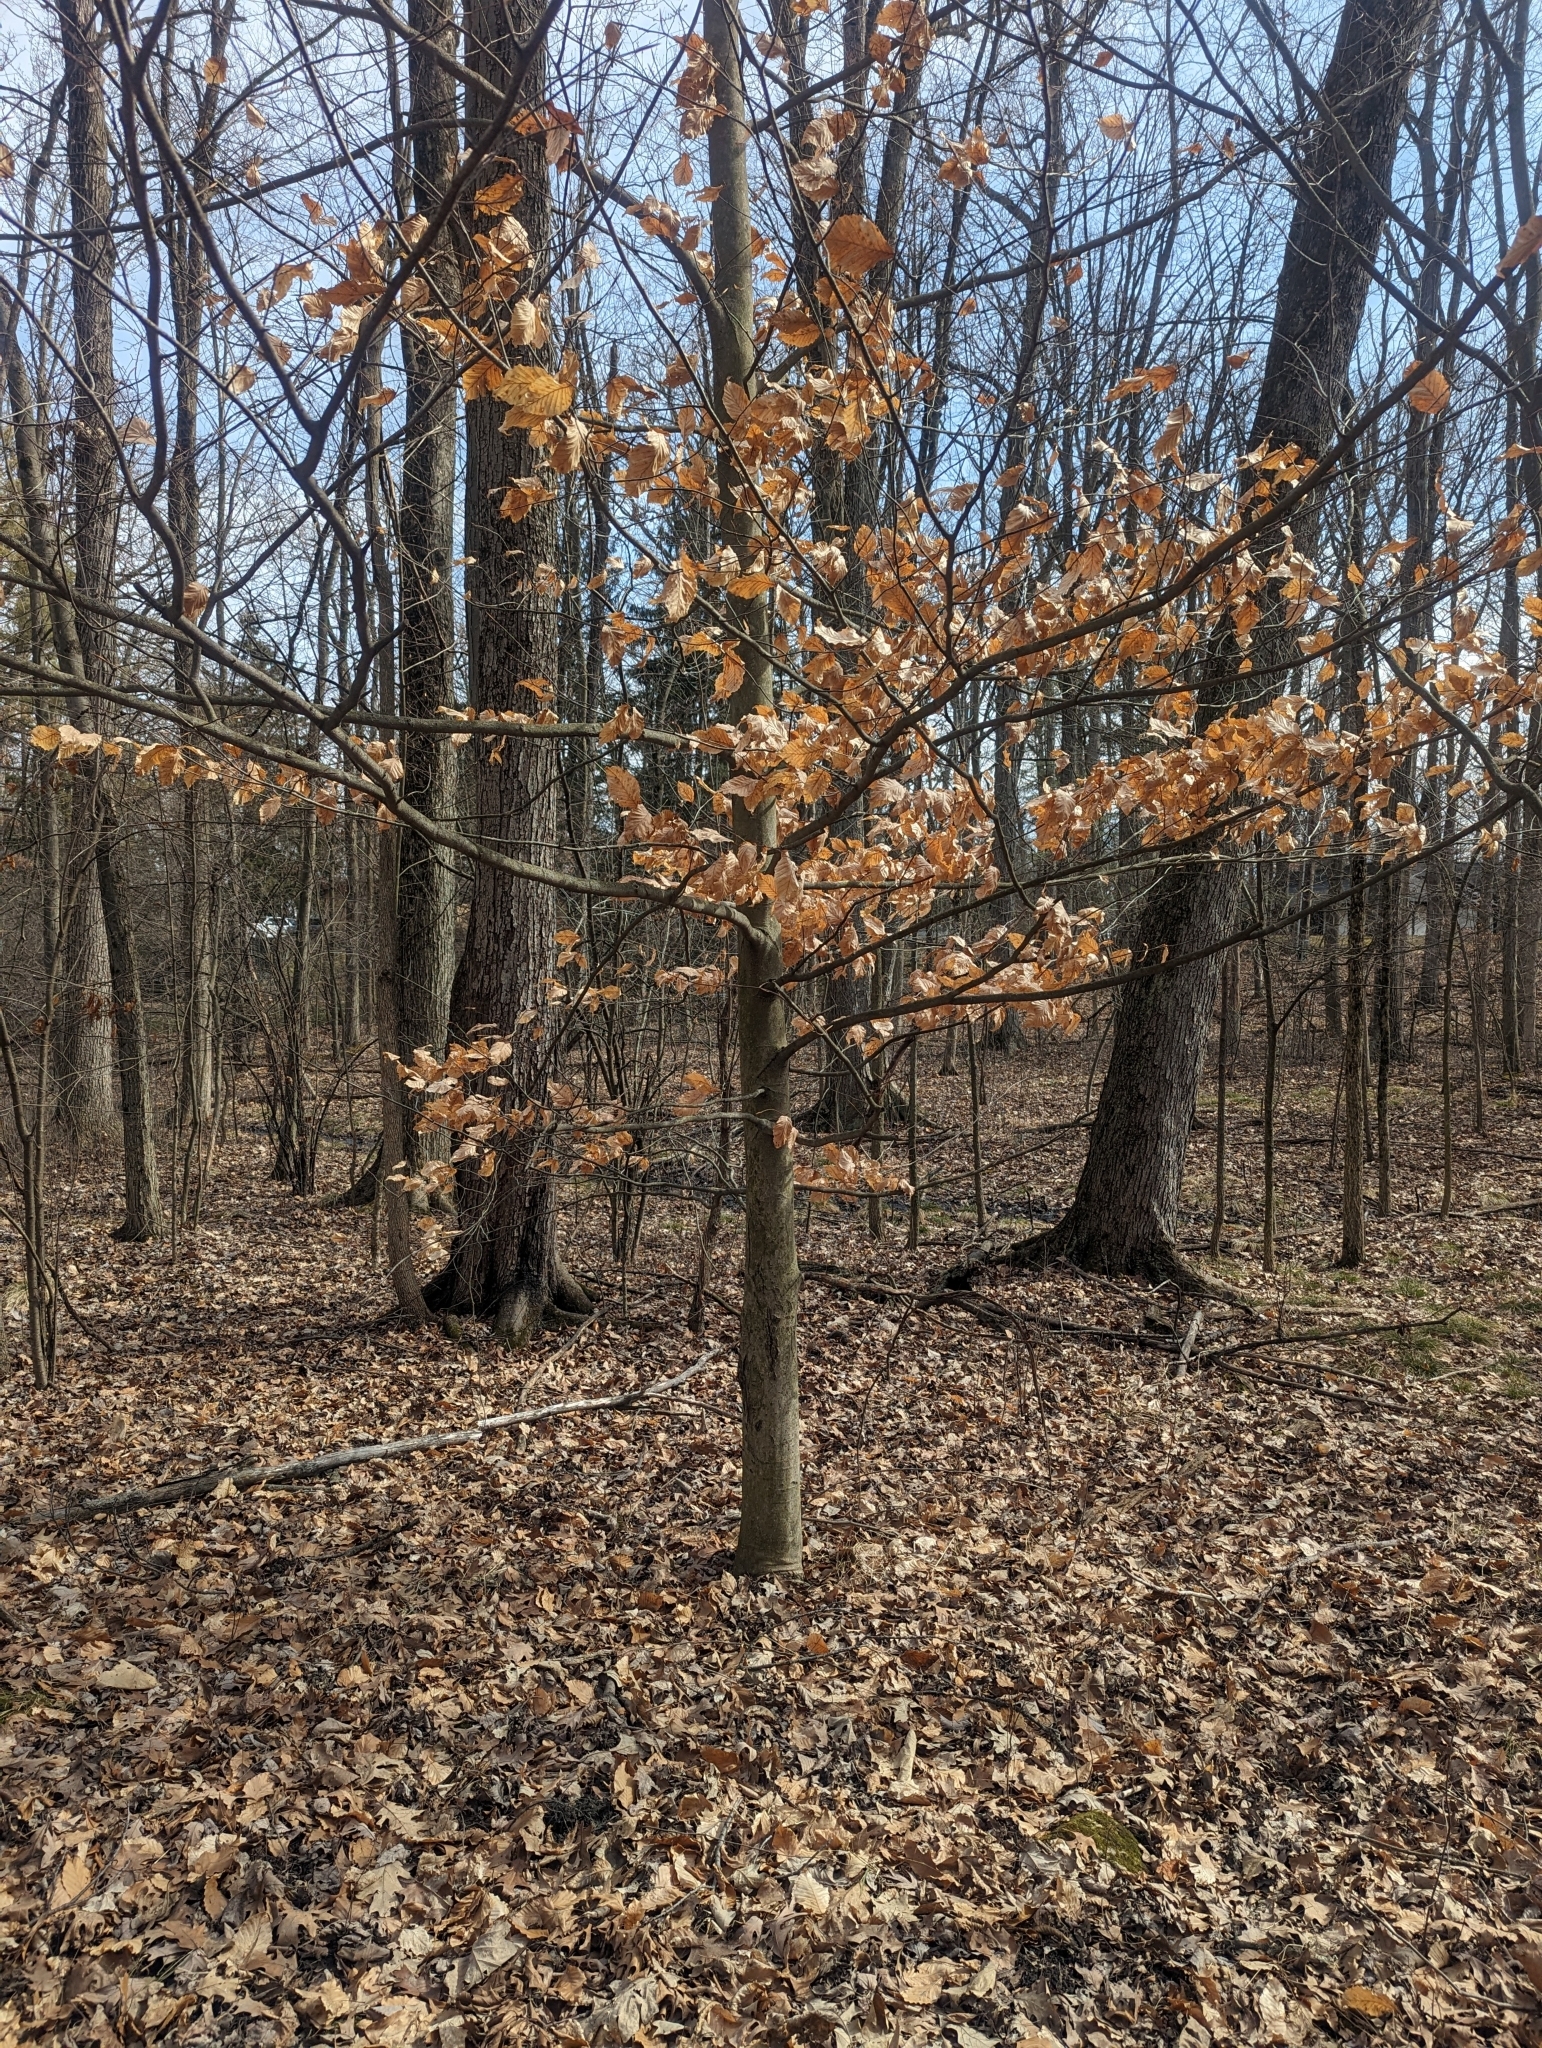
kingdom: Plantae
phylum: Tracheophyta
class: Magnoliopsida
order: Fagales
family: Fagaceae
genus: Fagus
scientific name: Fagus grandifolia
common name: American beech
